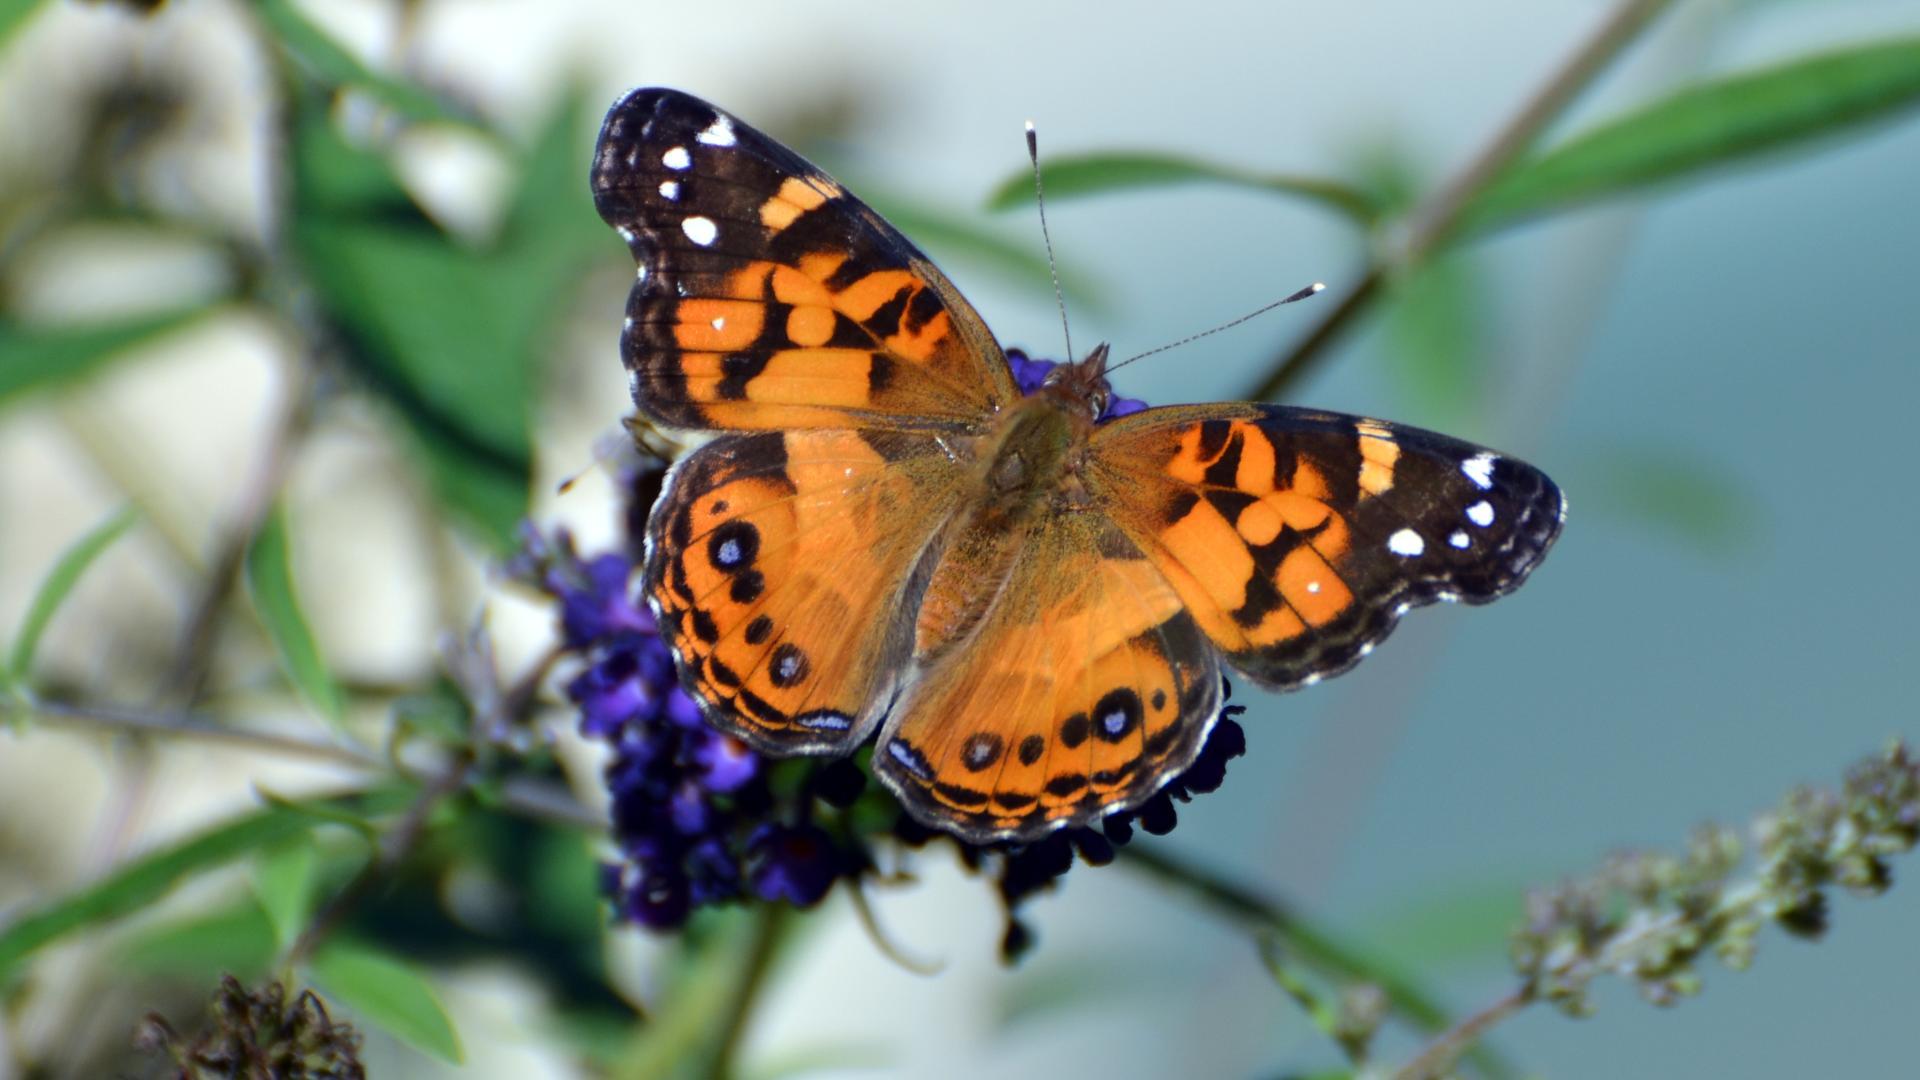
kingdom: Animalia
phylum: Arthropoda
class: Insecta
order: Lepidoptera
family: Nymphalidae
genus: Vanessa
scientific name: Vanessa virginiensis
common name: American lady
